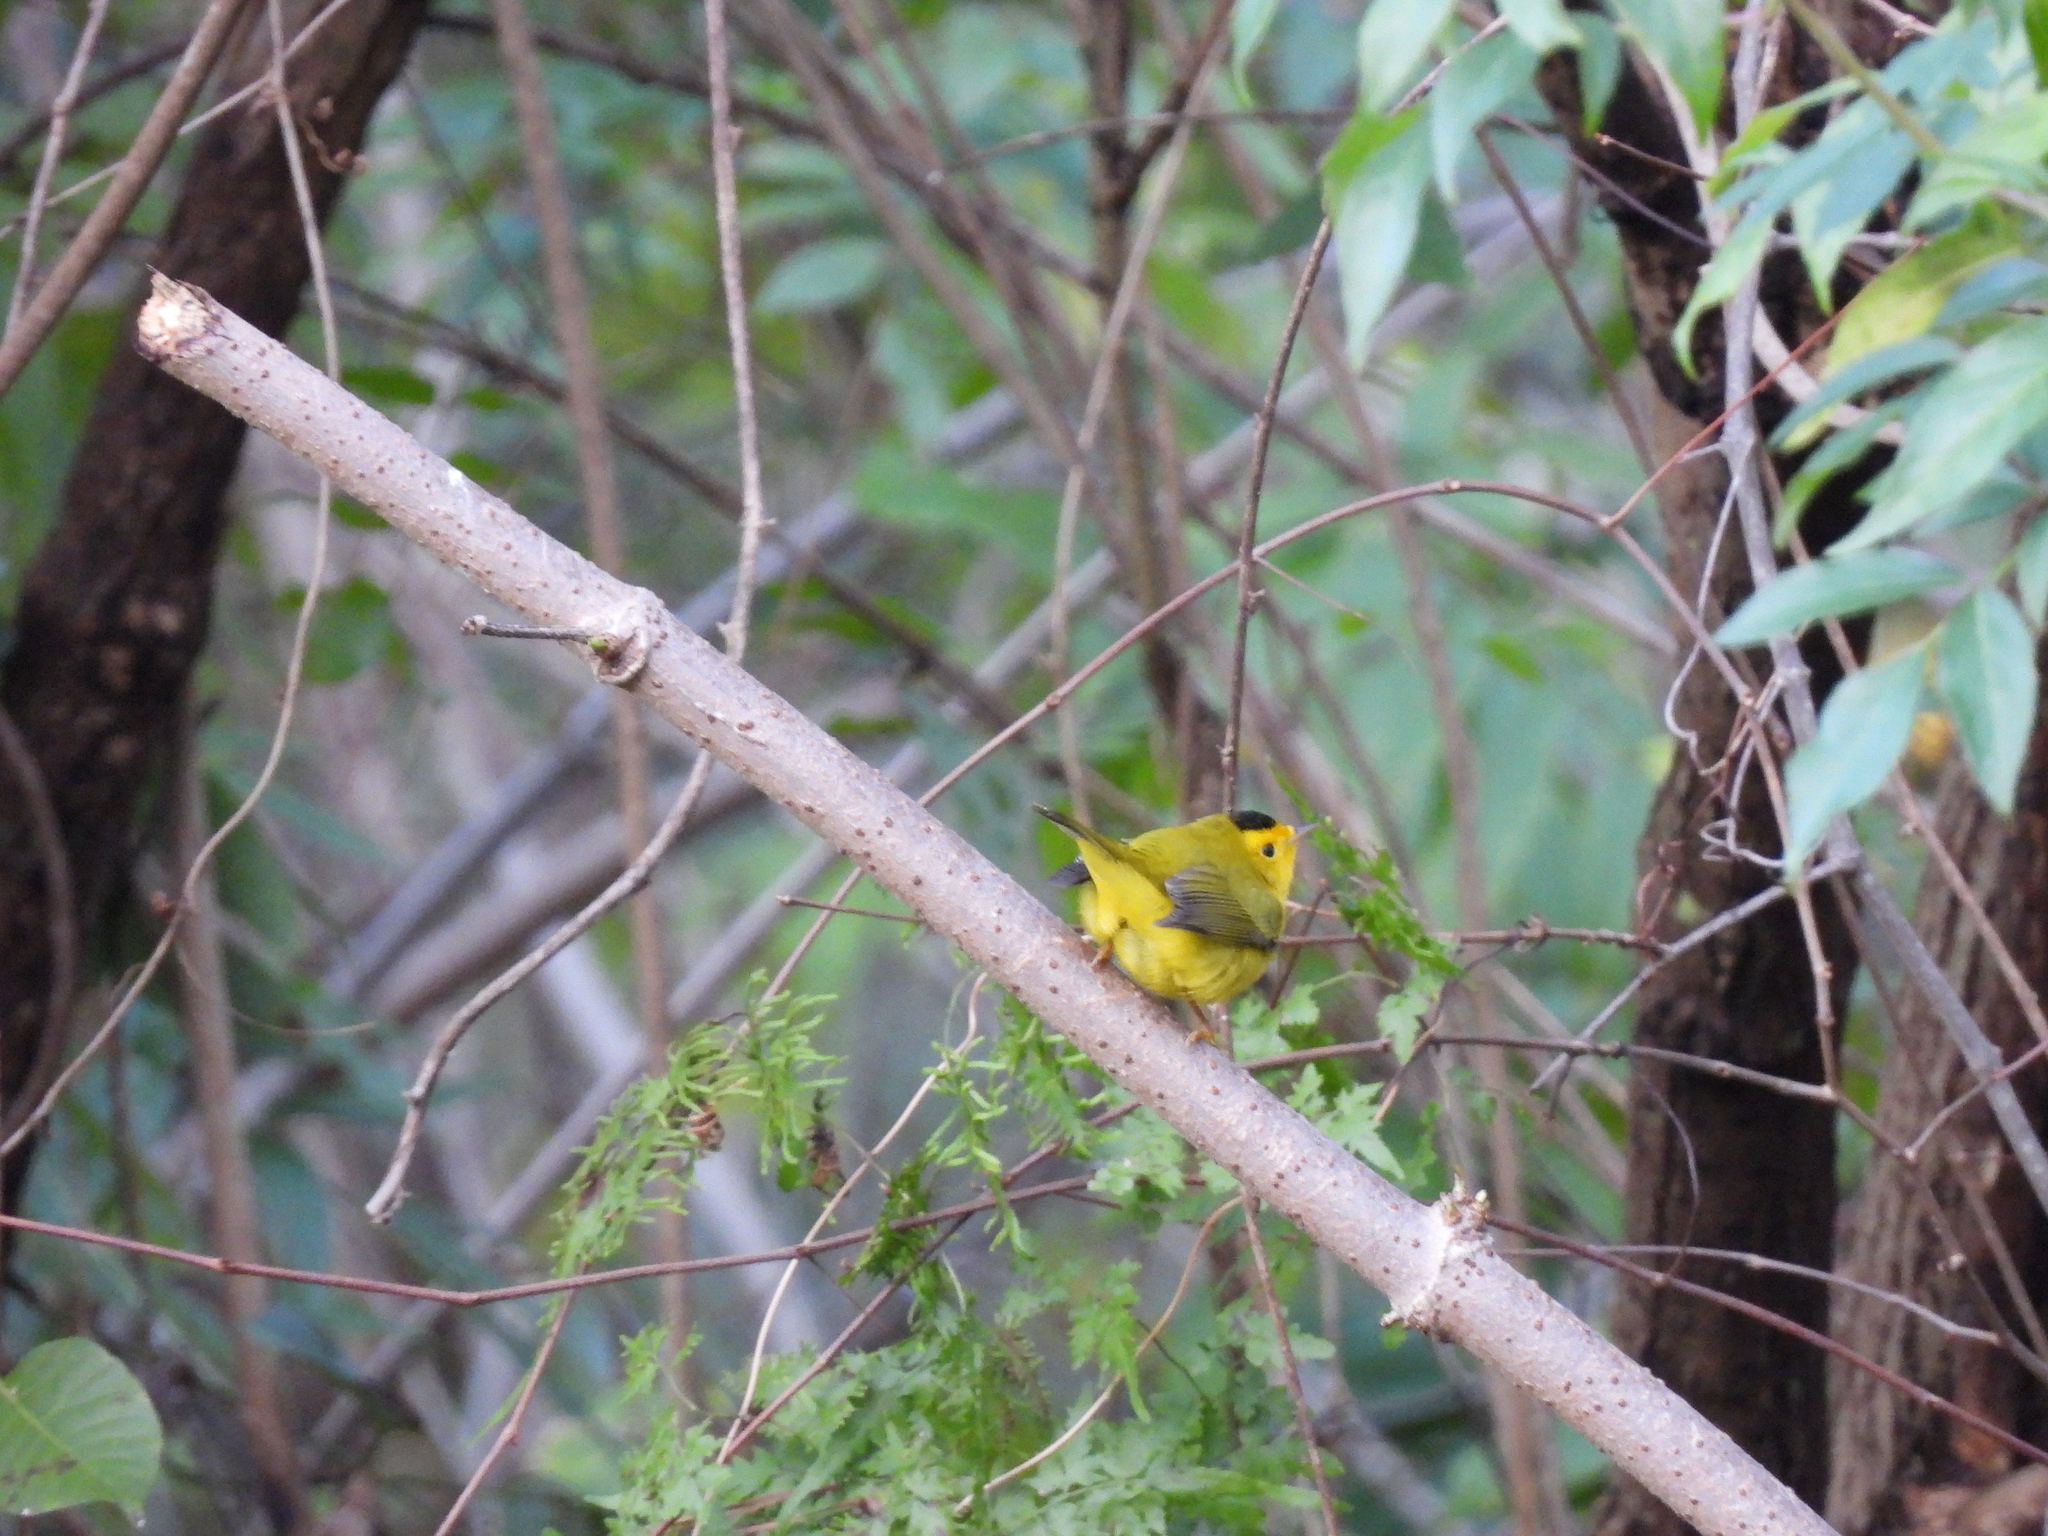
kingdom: Animalia
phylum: Chordata
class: Aves
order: Passeriformes
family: Parulidae
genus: Cardellina
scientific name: Cardellina pusilla
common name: Wilson's warbler
